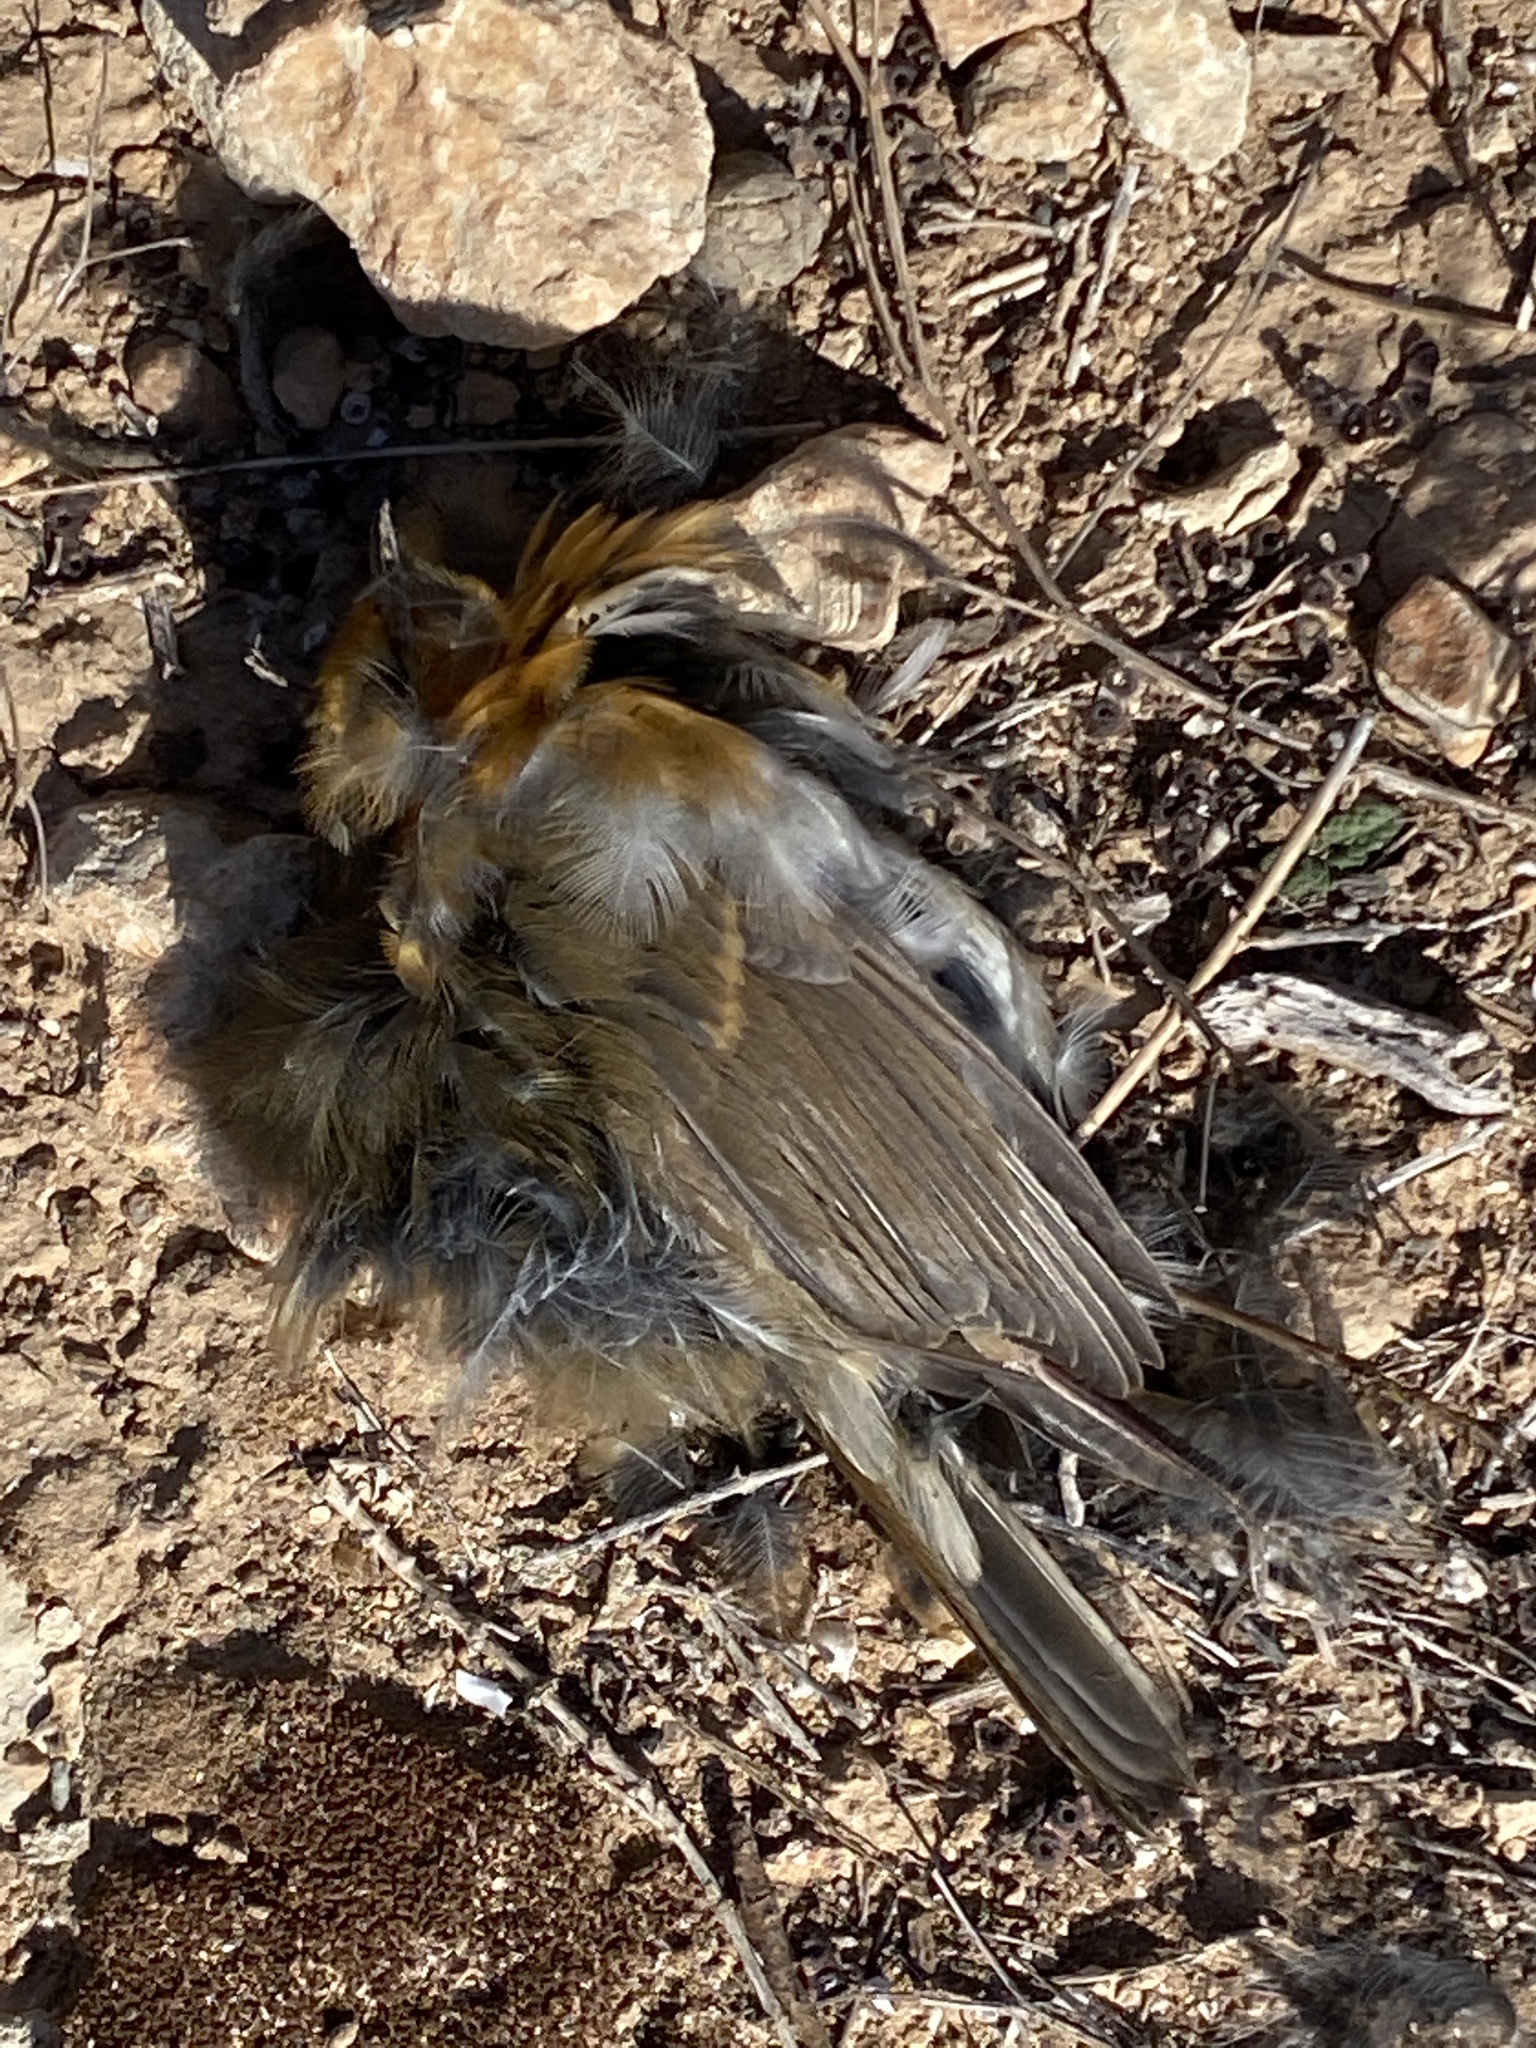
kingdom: Animalia
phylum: Chordata
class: Aves
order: Passeriformes
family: Muscicapidae
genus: Erithacus
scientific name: Erithacus rubecula
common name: European robin
